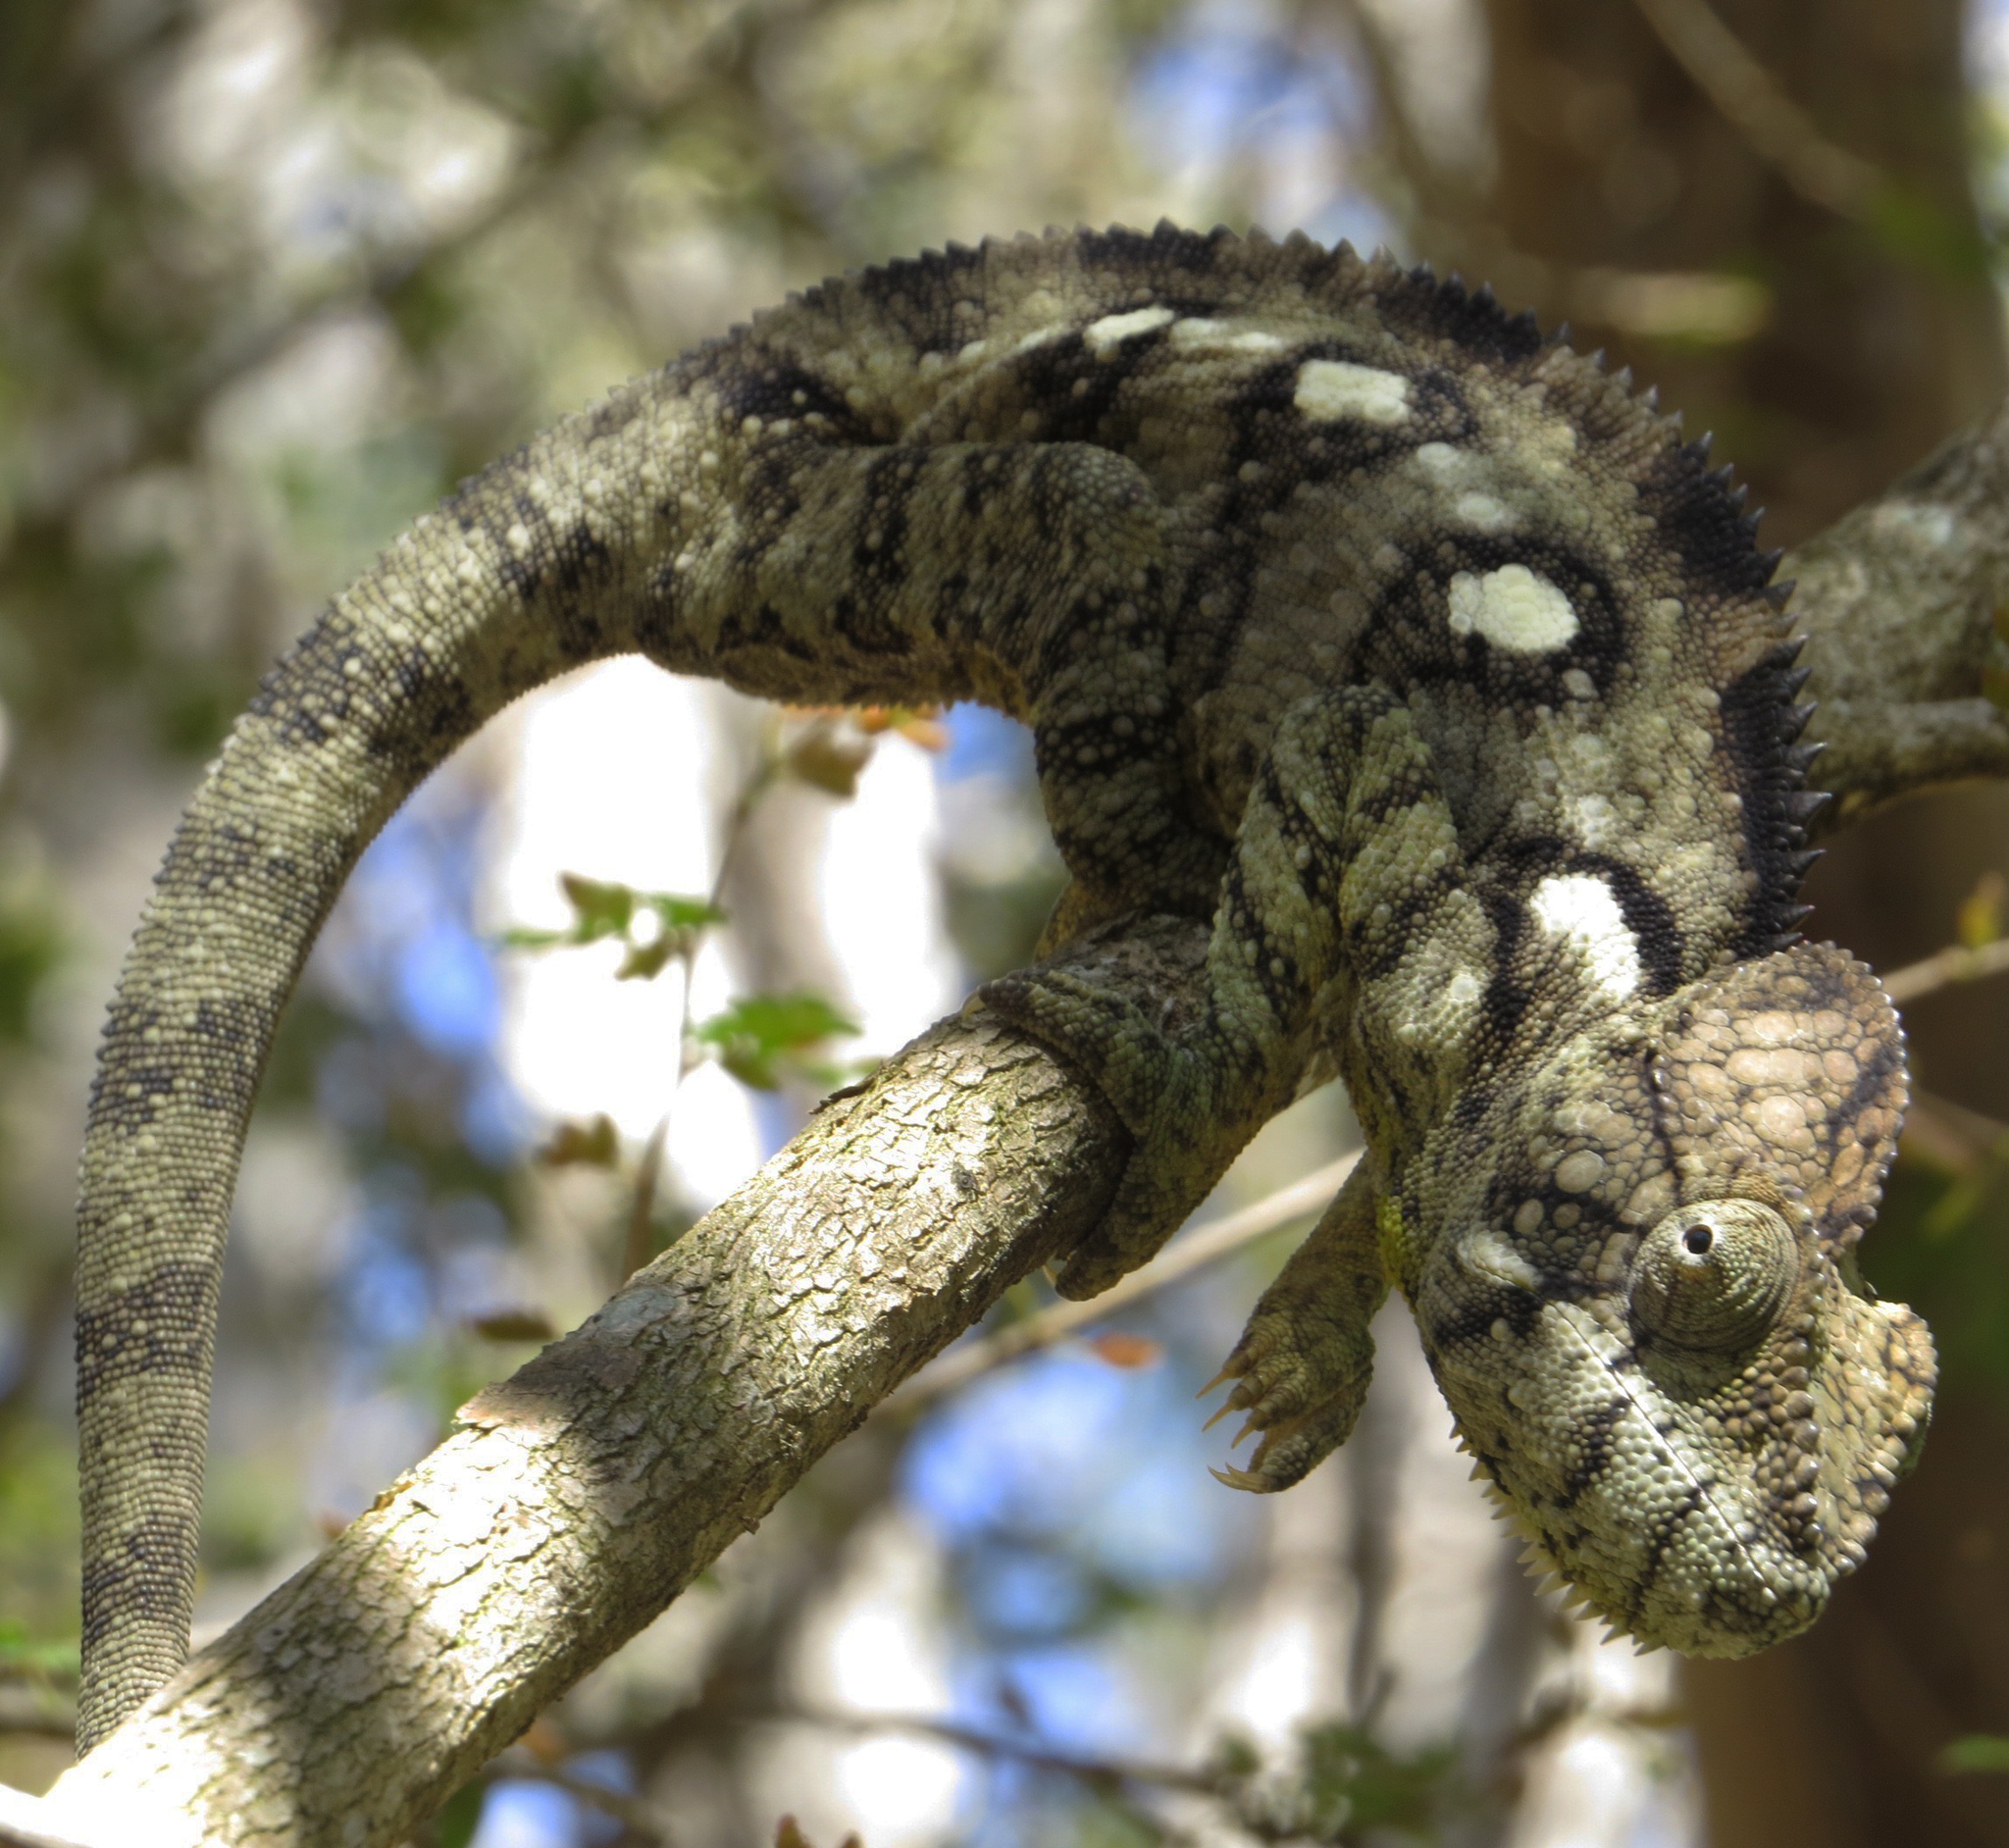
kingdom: Animalia
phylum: Chordata
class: Squamata
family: Chamaeleonidae
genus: Furcifer
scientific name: Furcifer oustaleti
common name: Oustalet's chameleon
